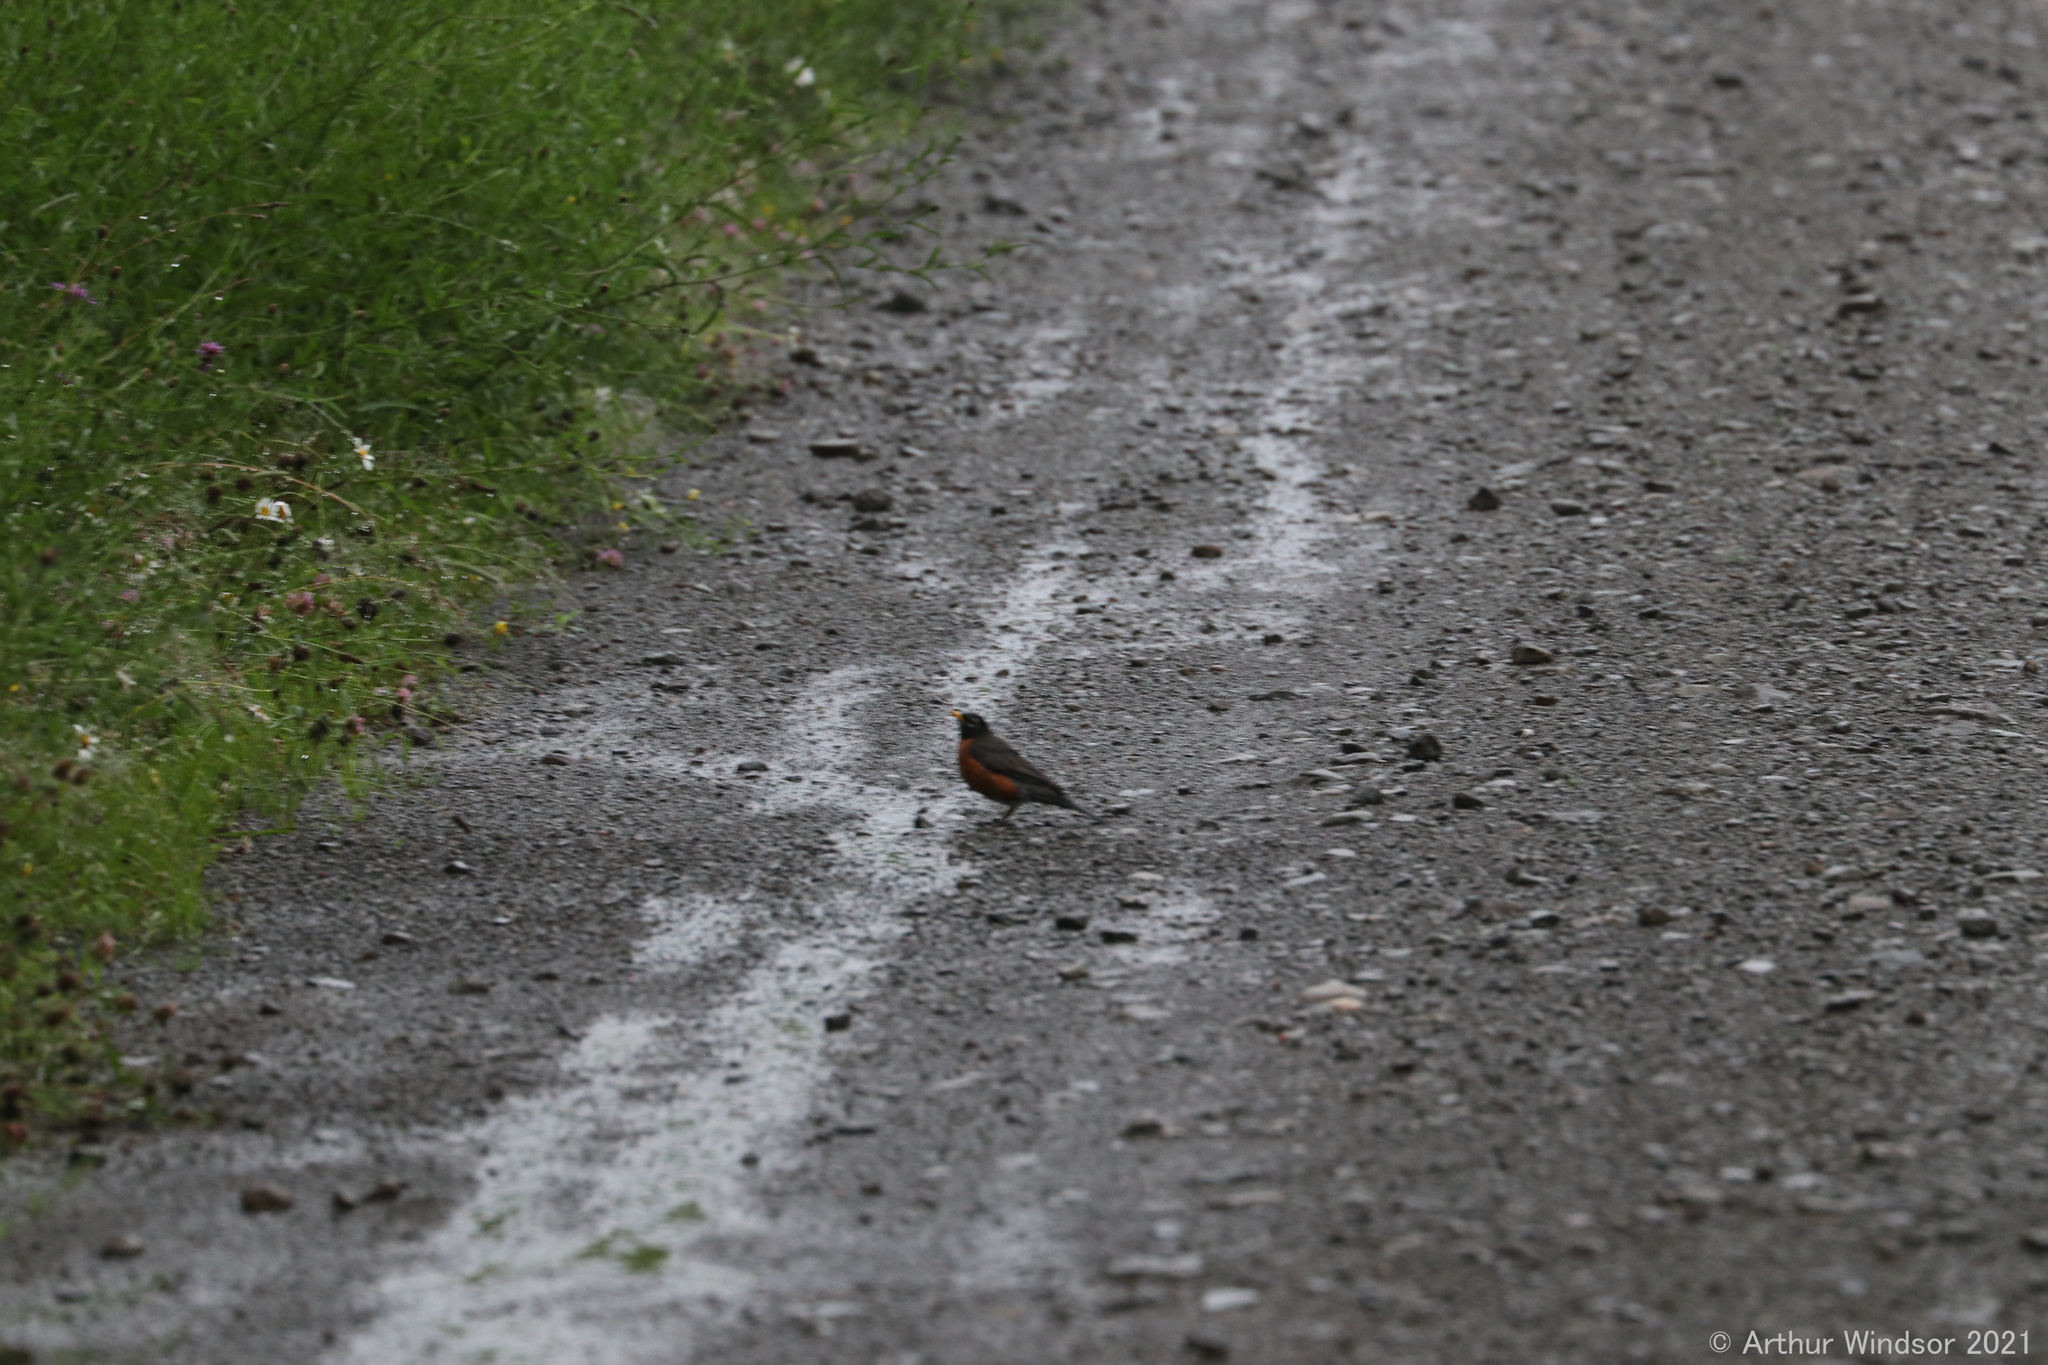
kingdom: Animalia
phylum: Chordata
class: Aves
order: Passeriformes
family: Turdidae
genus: Turdus
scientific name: Turdus migratorius
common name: American robin
